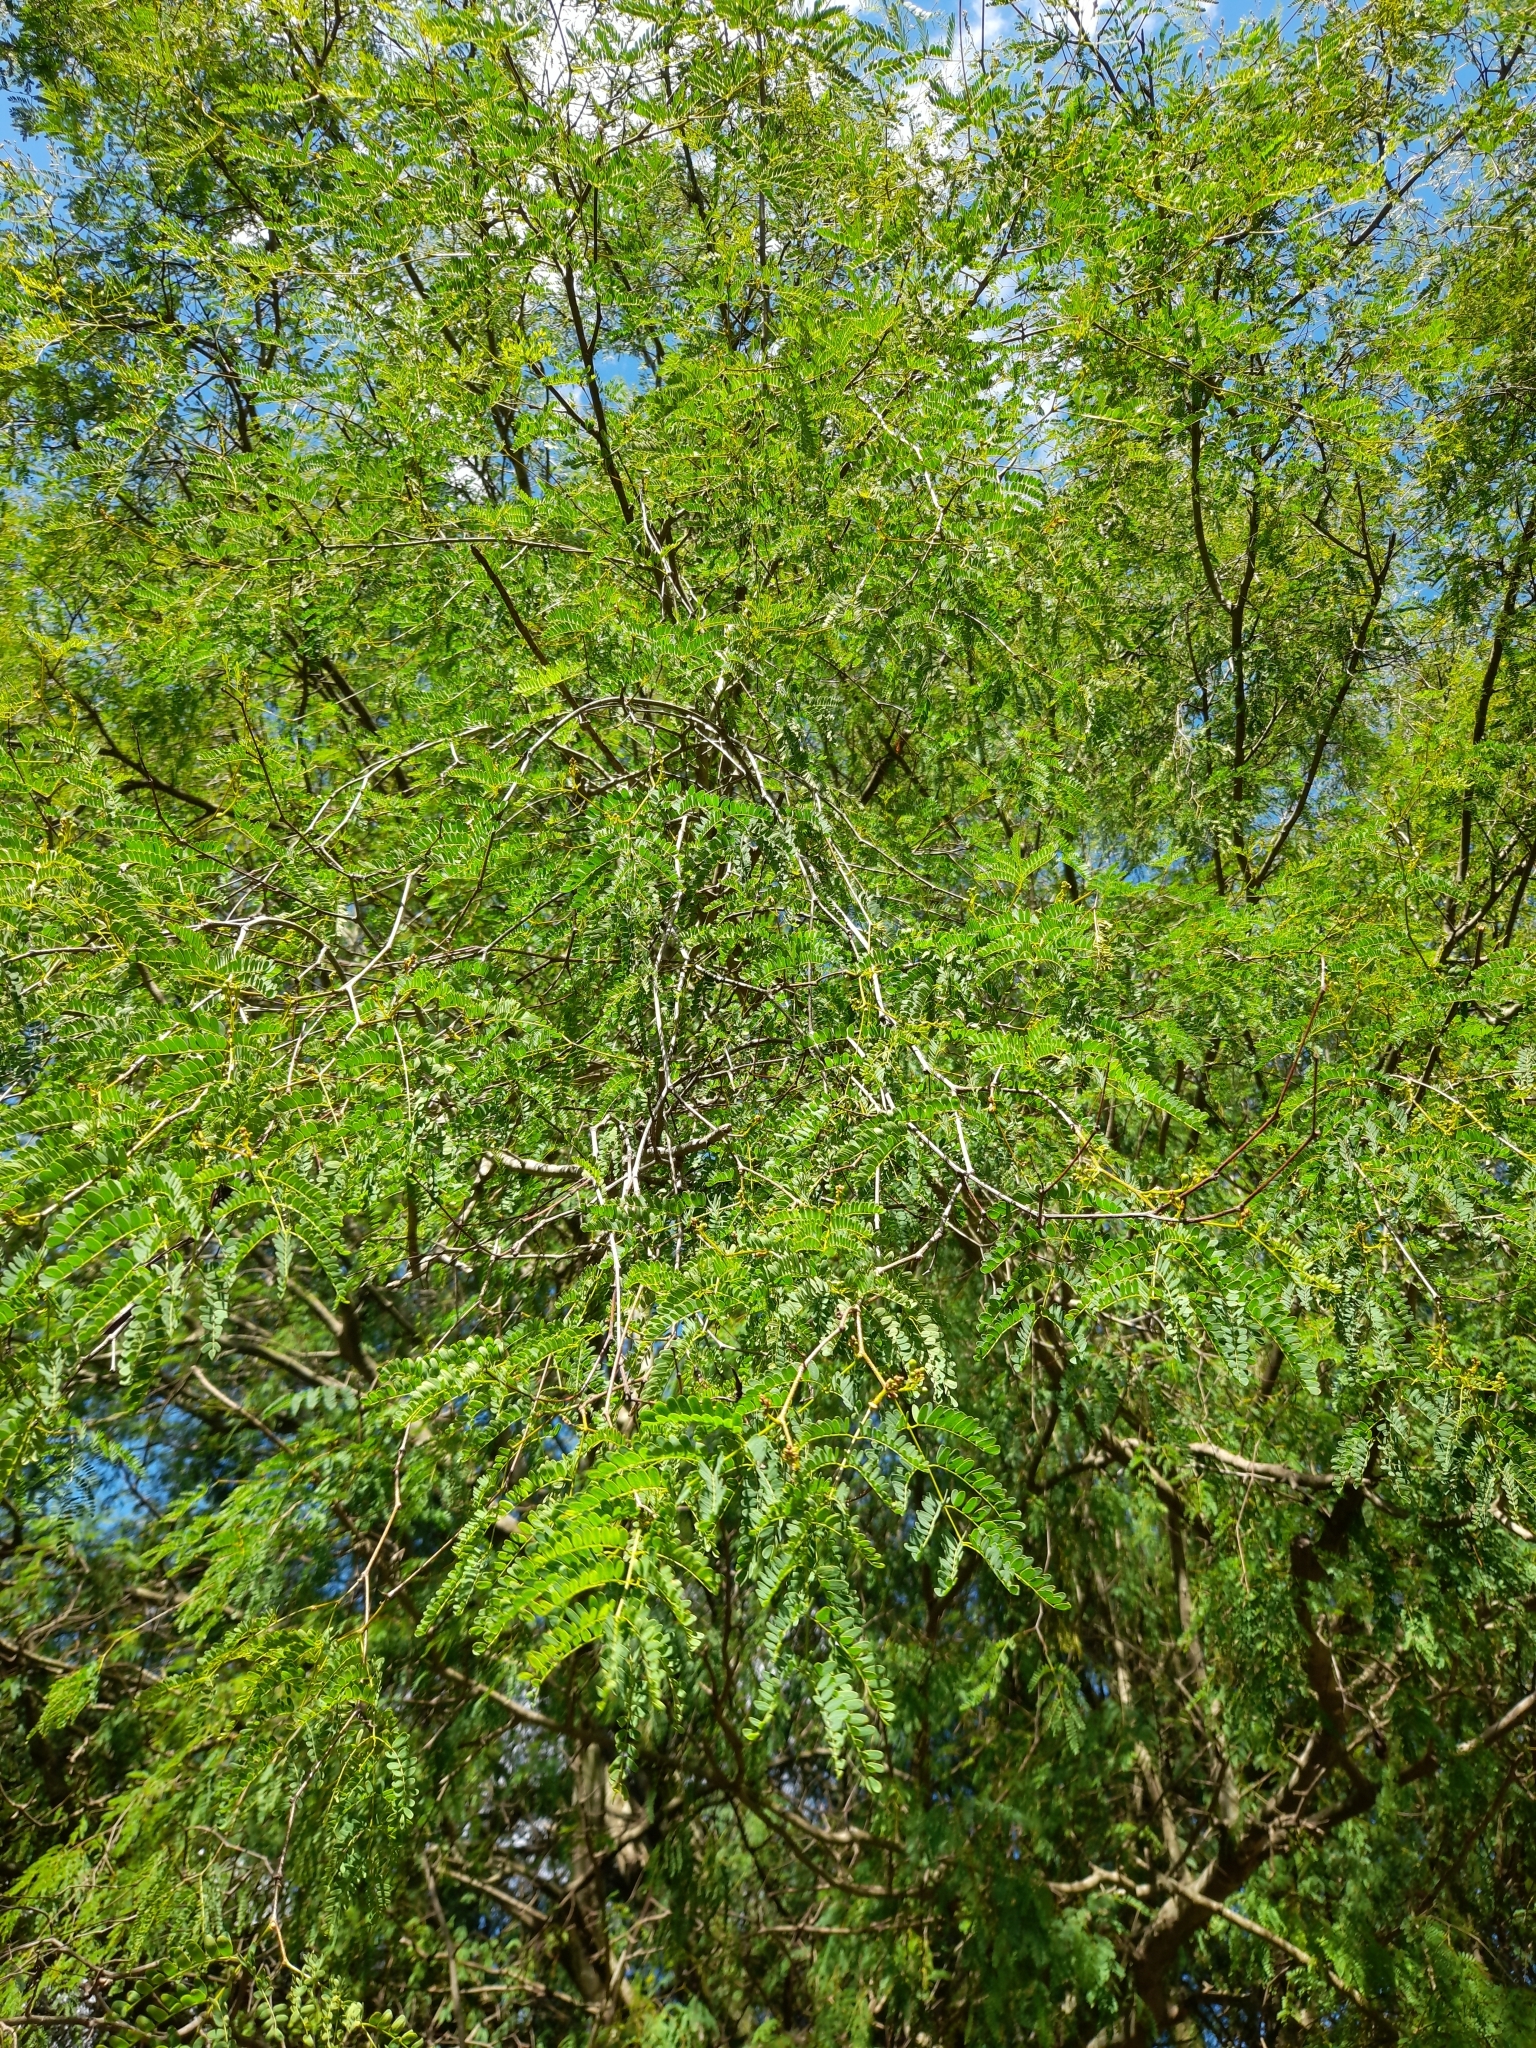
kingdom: Plantae
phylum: Tracheophyta
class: Magnoliopsida
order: Fabales
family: Fabaceae
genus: Libidibia
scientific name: Libidibia paraguariensis
